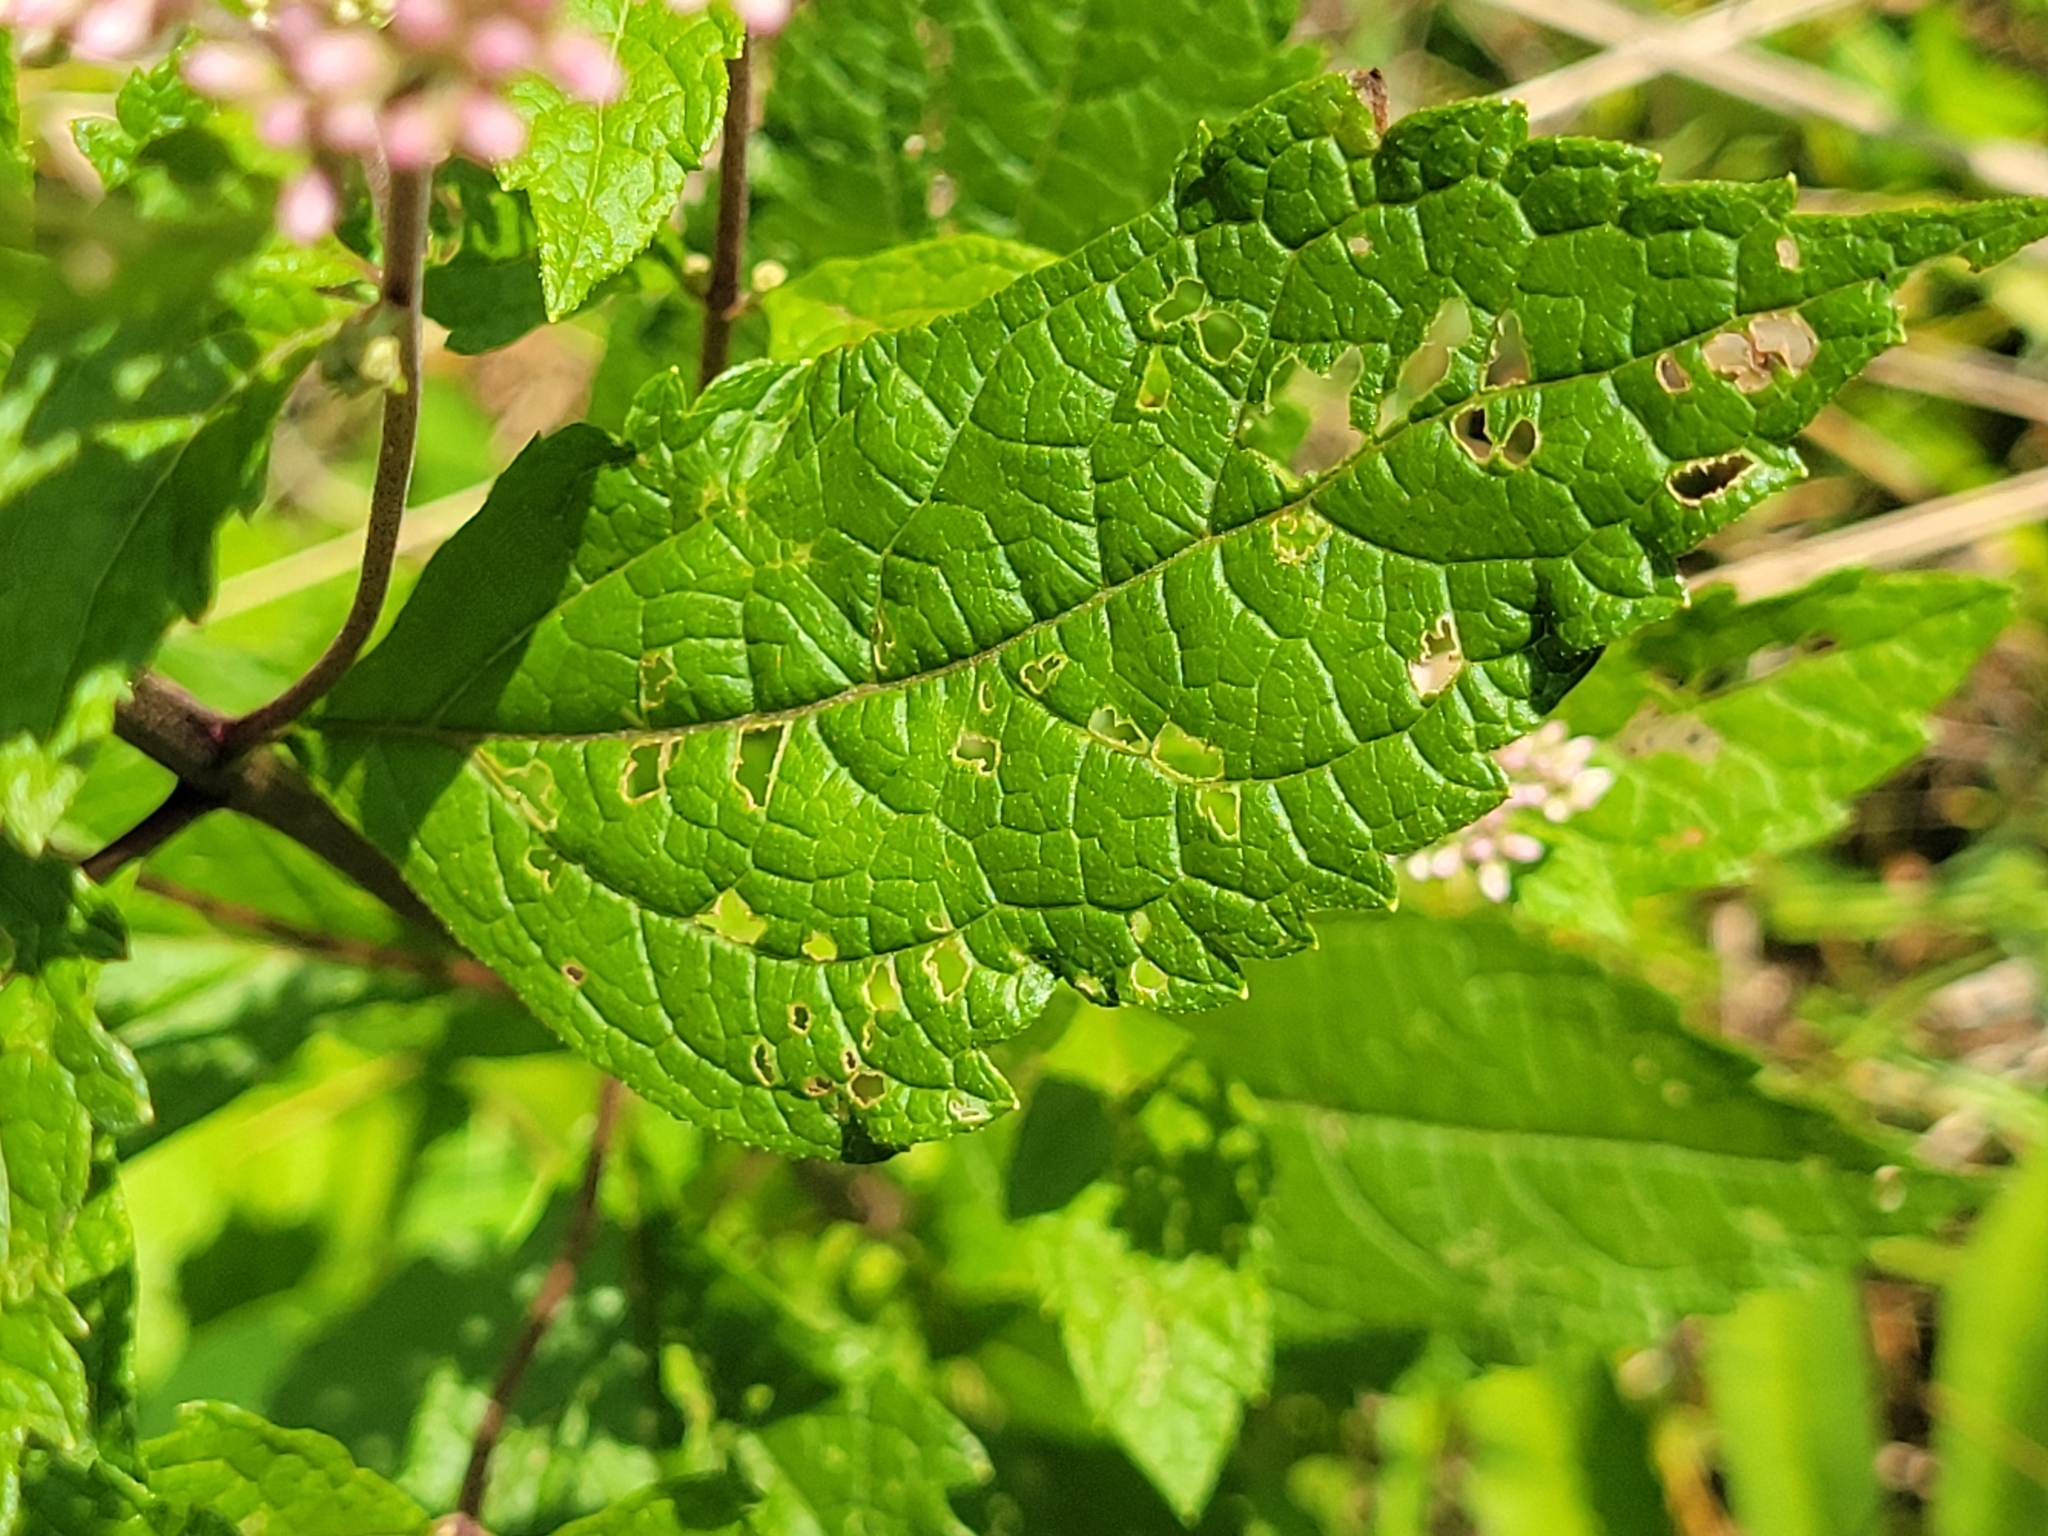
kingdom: Plantae
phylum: Tracheophyta
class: Magnoliopsida
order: Asterales
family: Asteraceae
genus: Eutrochium
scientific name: Eutrochium dubium
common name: Coastal plain joe pye weed
